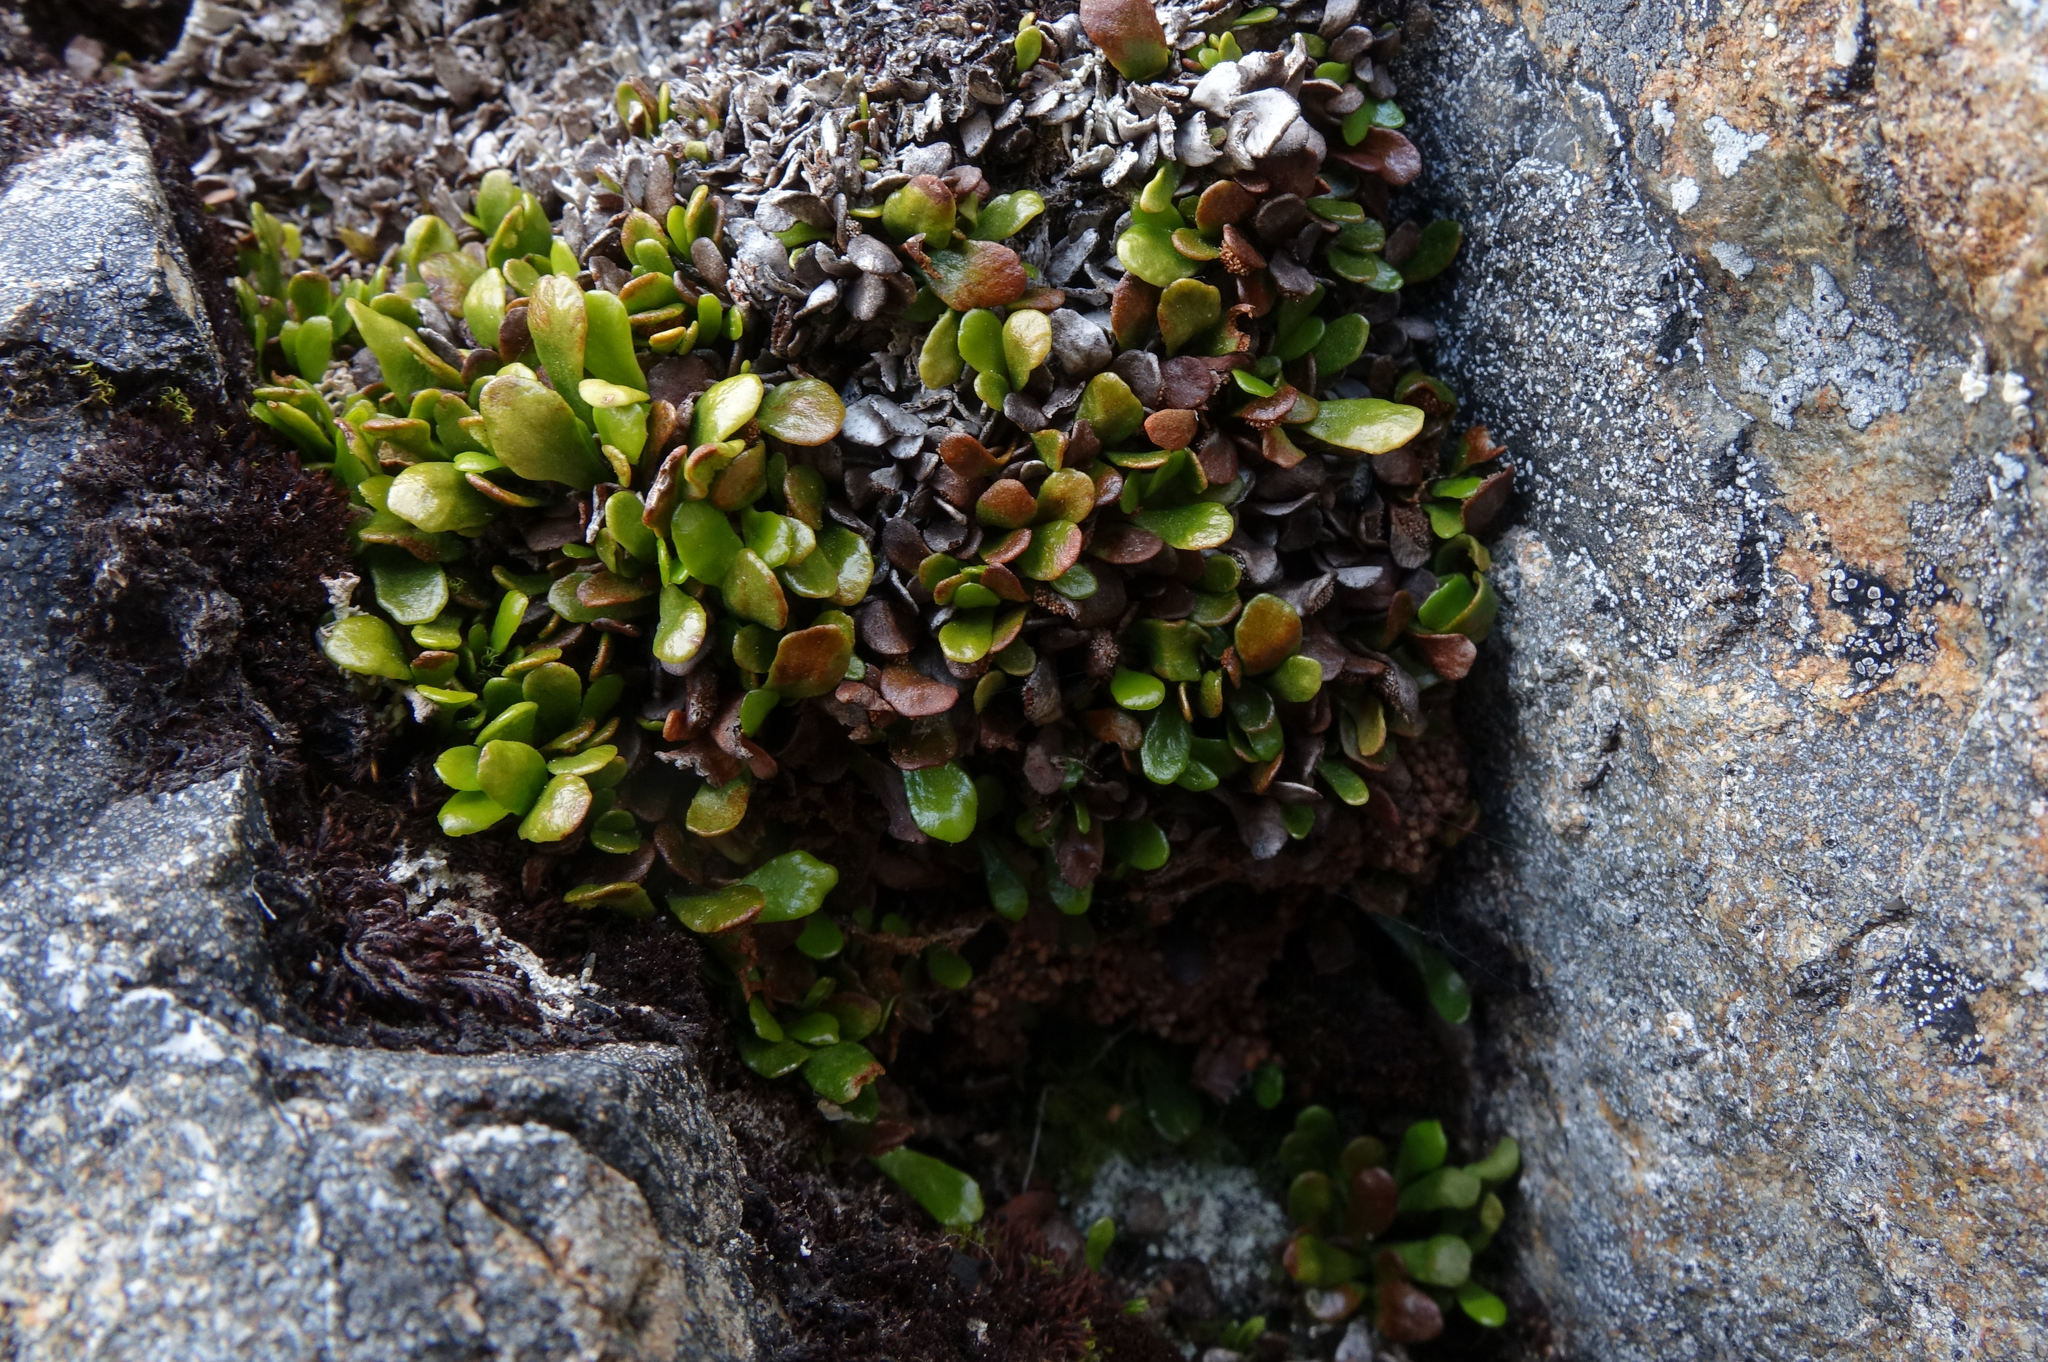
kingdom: Plantae
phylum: Tracheophyta
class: Polypodiopsida
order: Polypodiales
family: Polypodiaceae
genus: Notogrammitis
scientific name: Notogrammitis crassior
